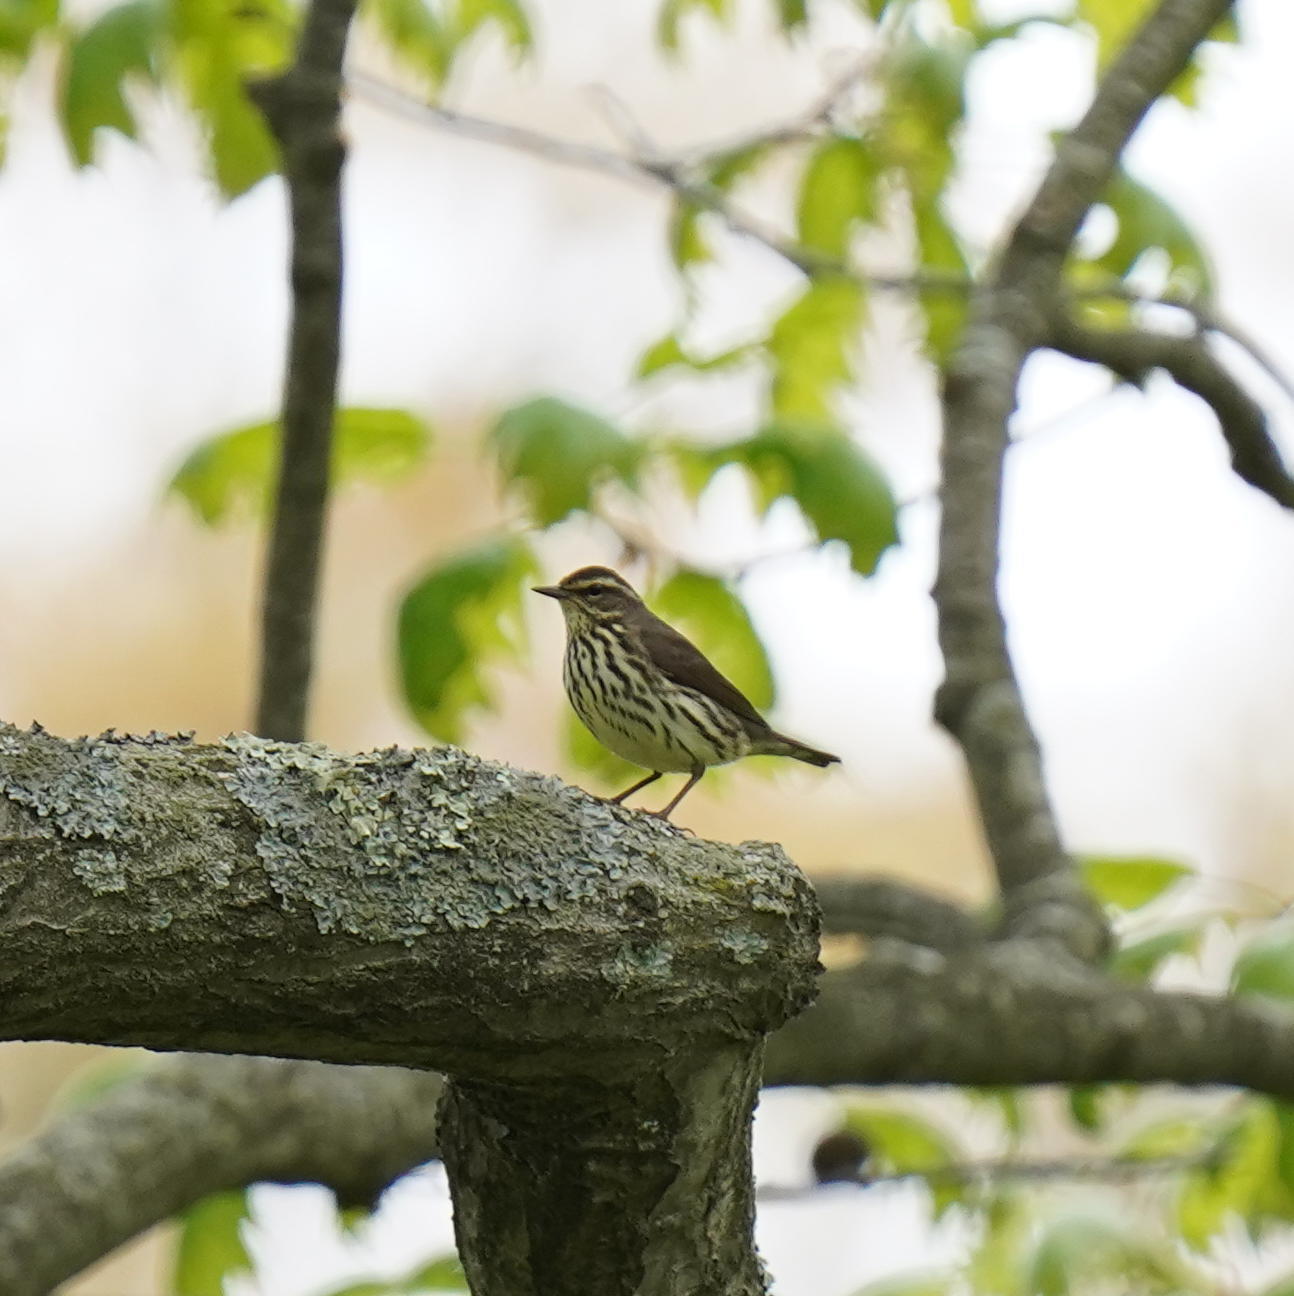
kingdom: Animalia
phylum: Chordata
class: Aves
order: Passeriformes
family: Parulidae
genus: Parkesia
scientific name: Parkesia noveboracensis
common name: Northern waterthrush
